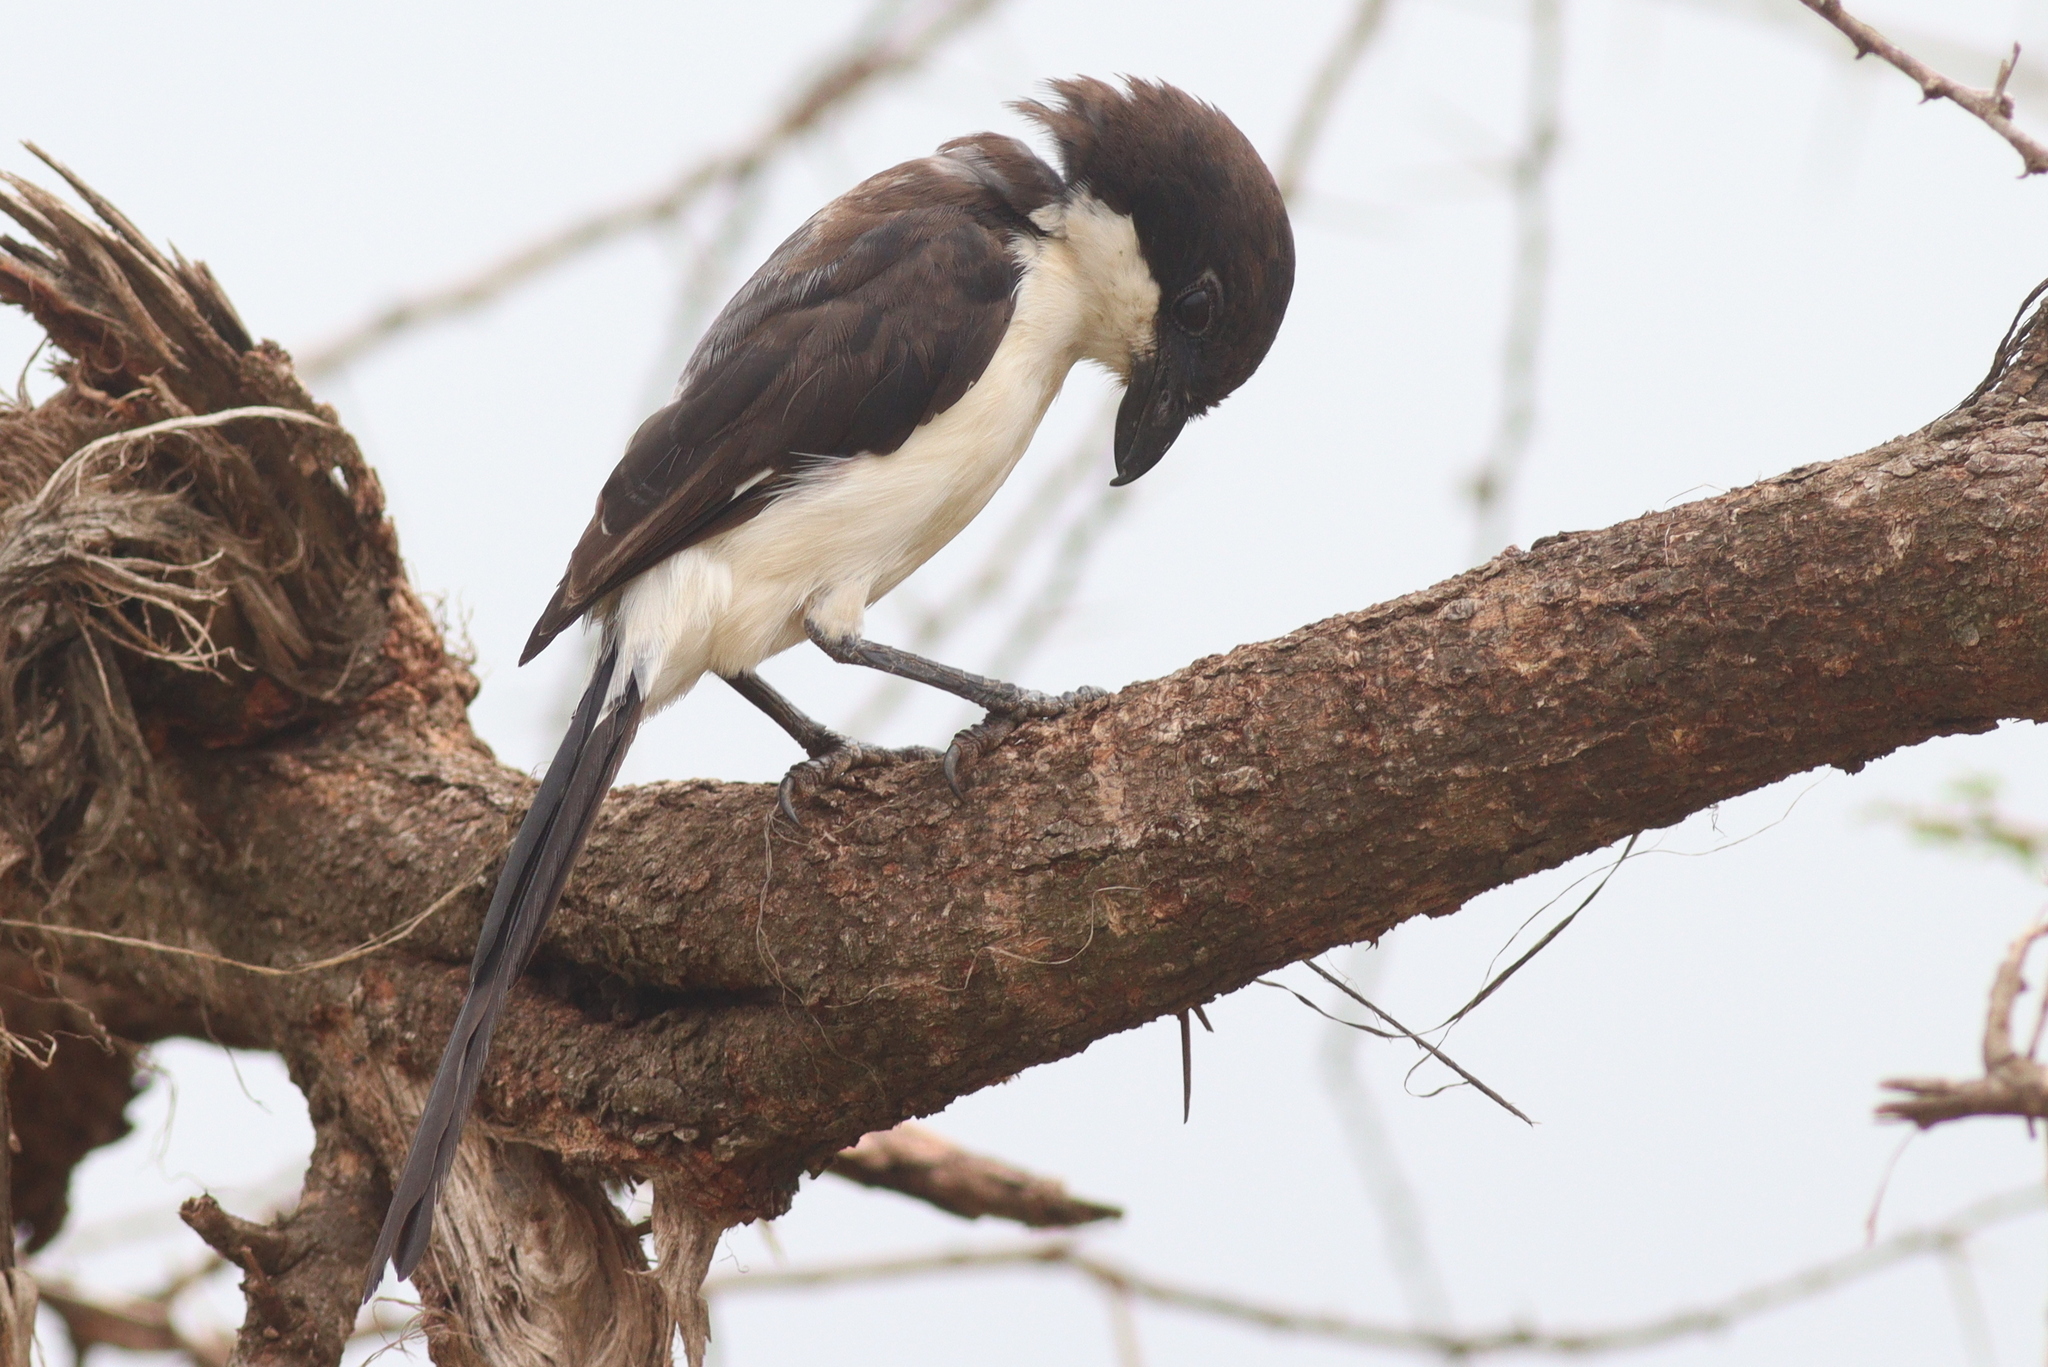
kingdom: Animalia
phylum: Chordata
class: Aves
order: Passeriformes
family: Laniidae
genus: Lanius
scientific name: Lanius cabanisi
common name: Long-tailed fiscal
